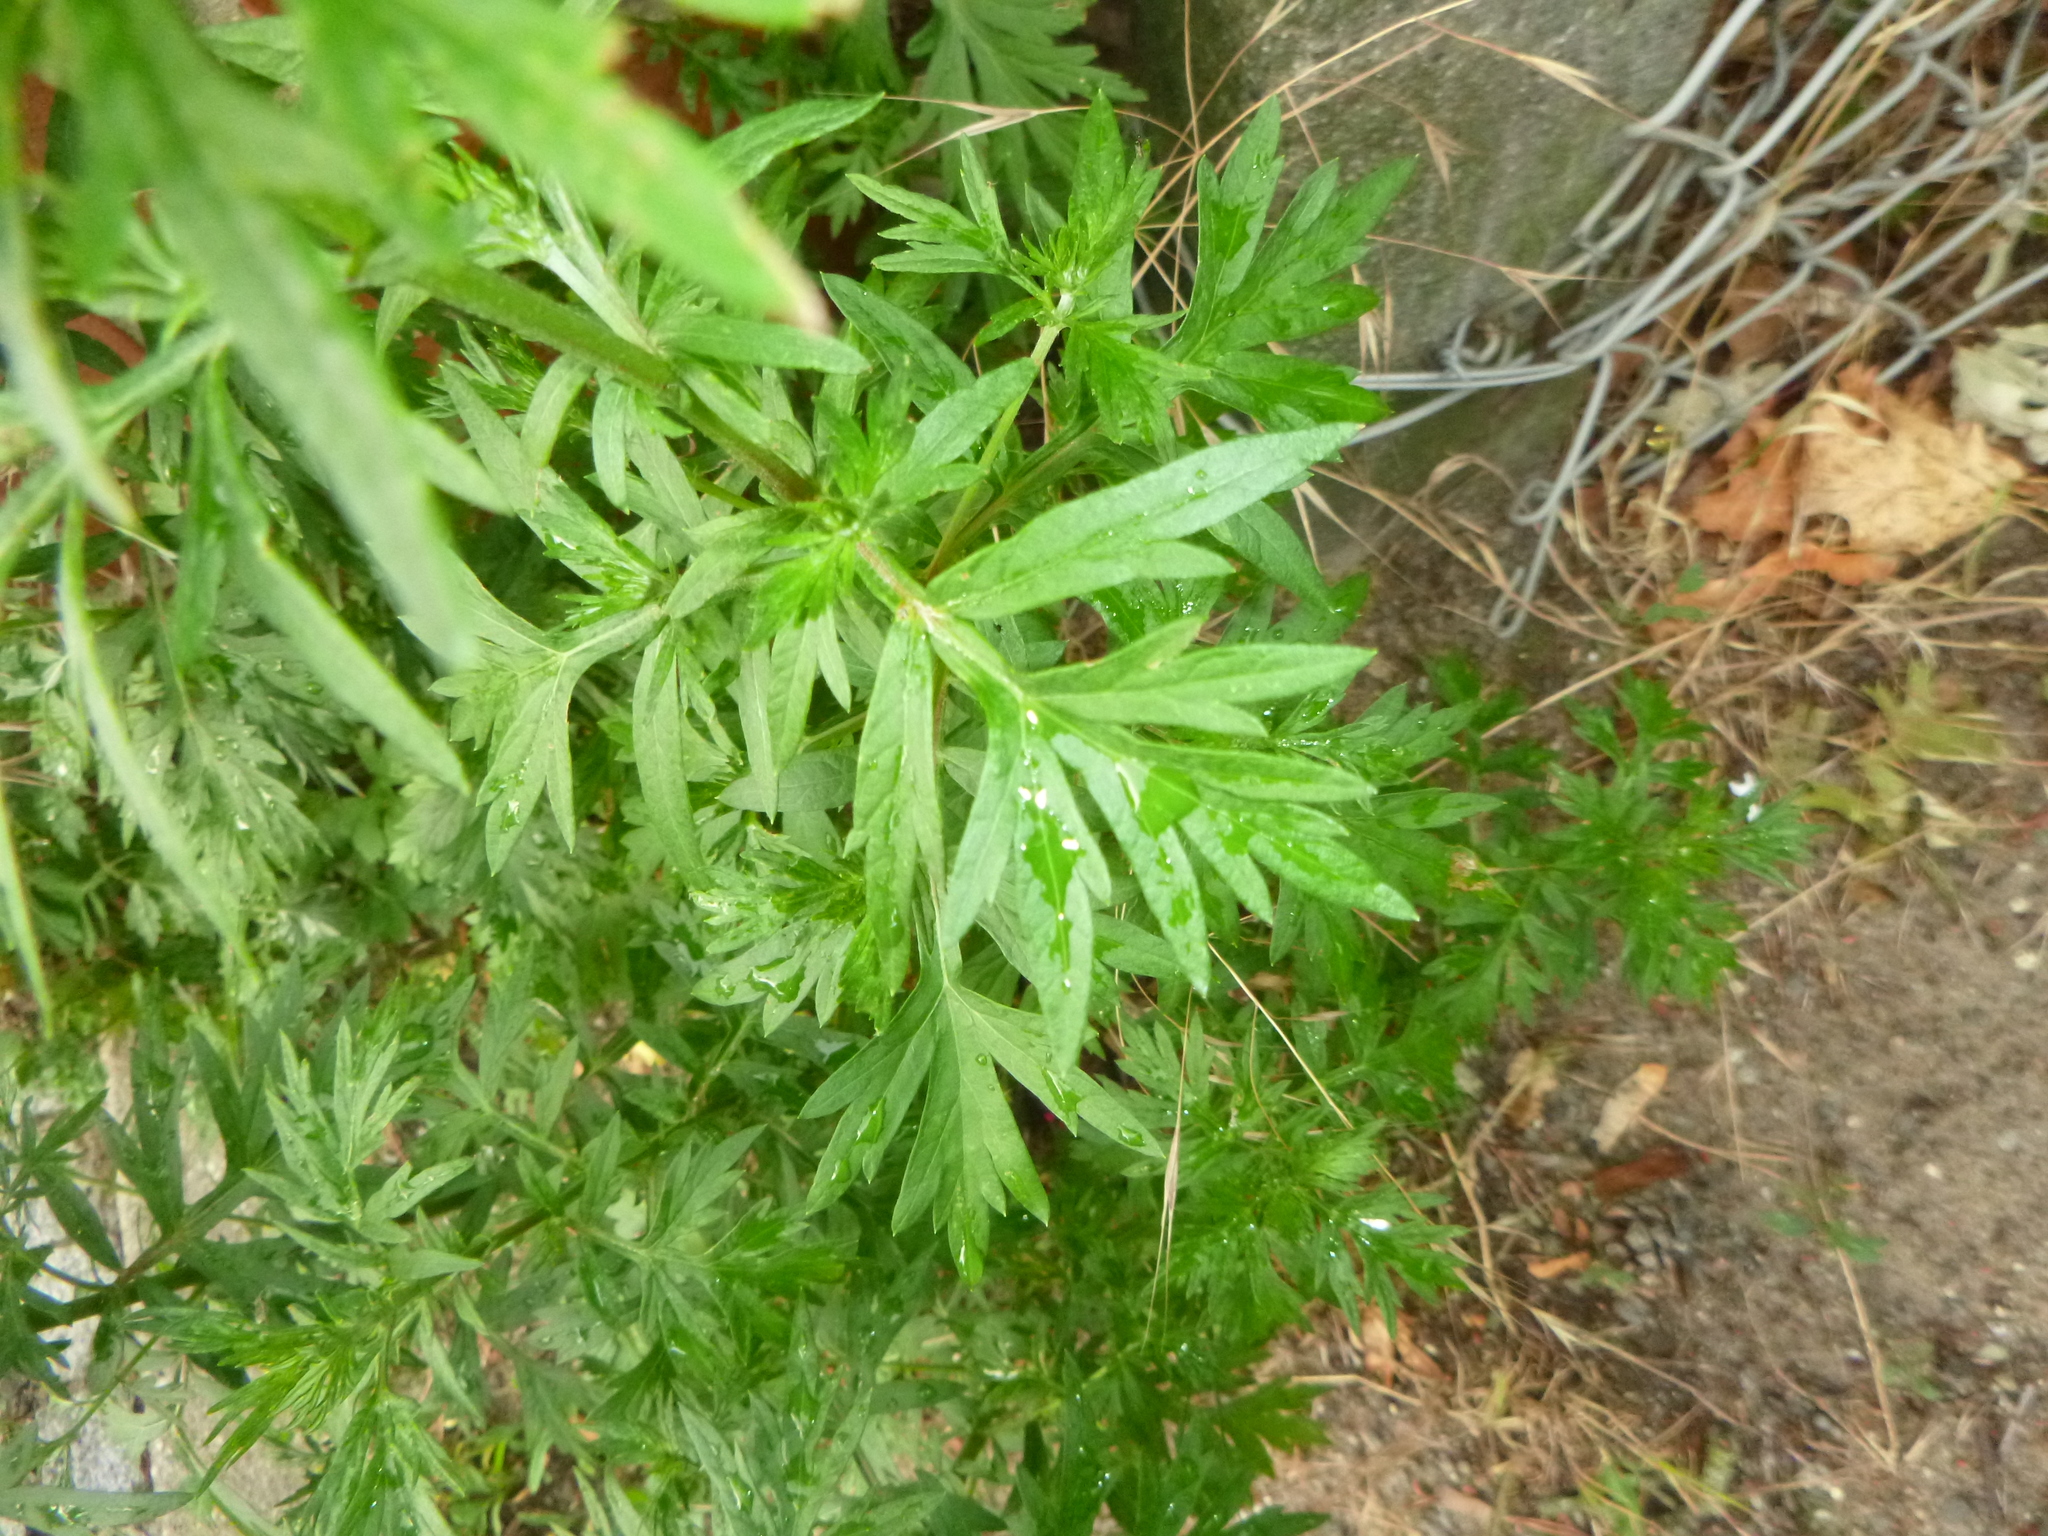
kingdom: Plantae
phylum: Tracheophyta
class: Magnoliopsida
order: Asterales
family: Asteraceae
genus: Artemisia
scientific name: Artemisia vulgaris
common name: Mugwort
